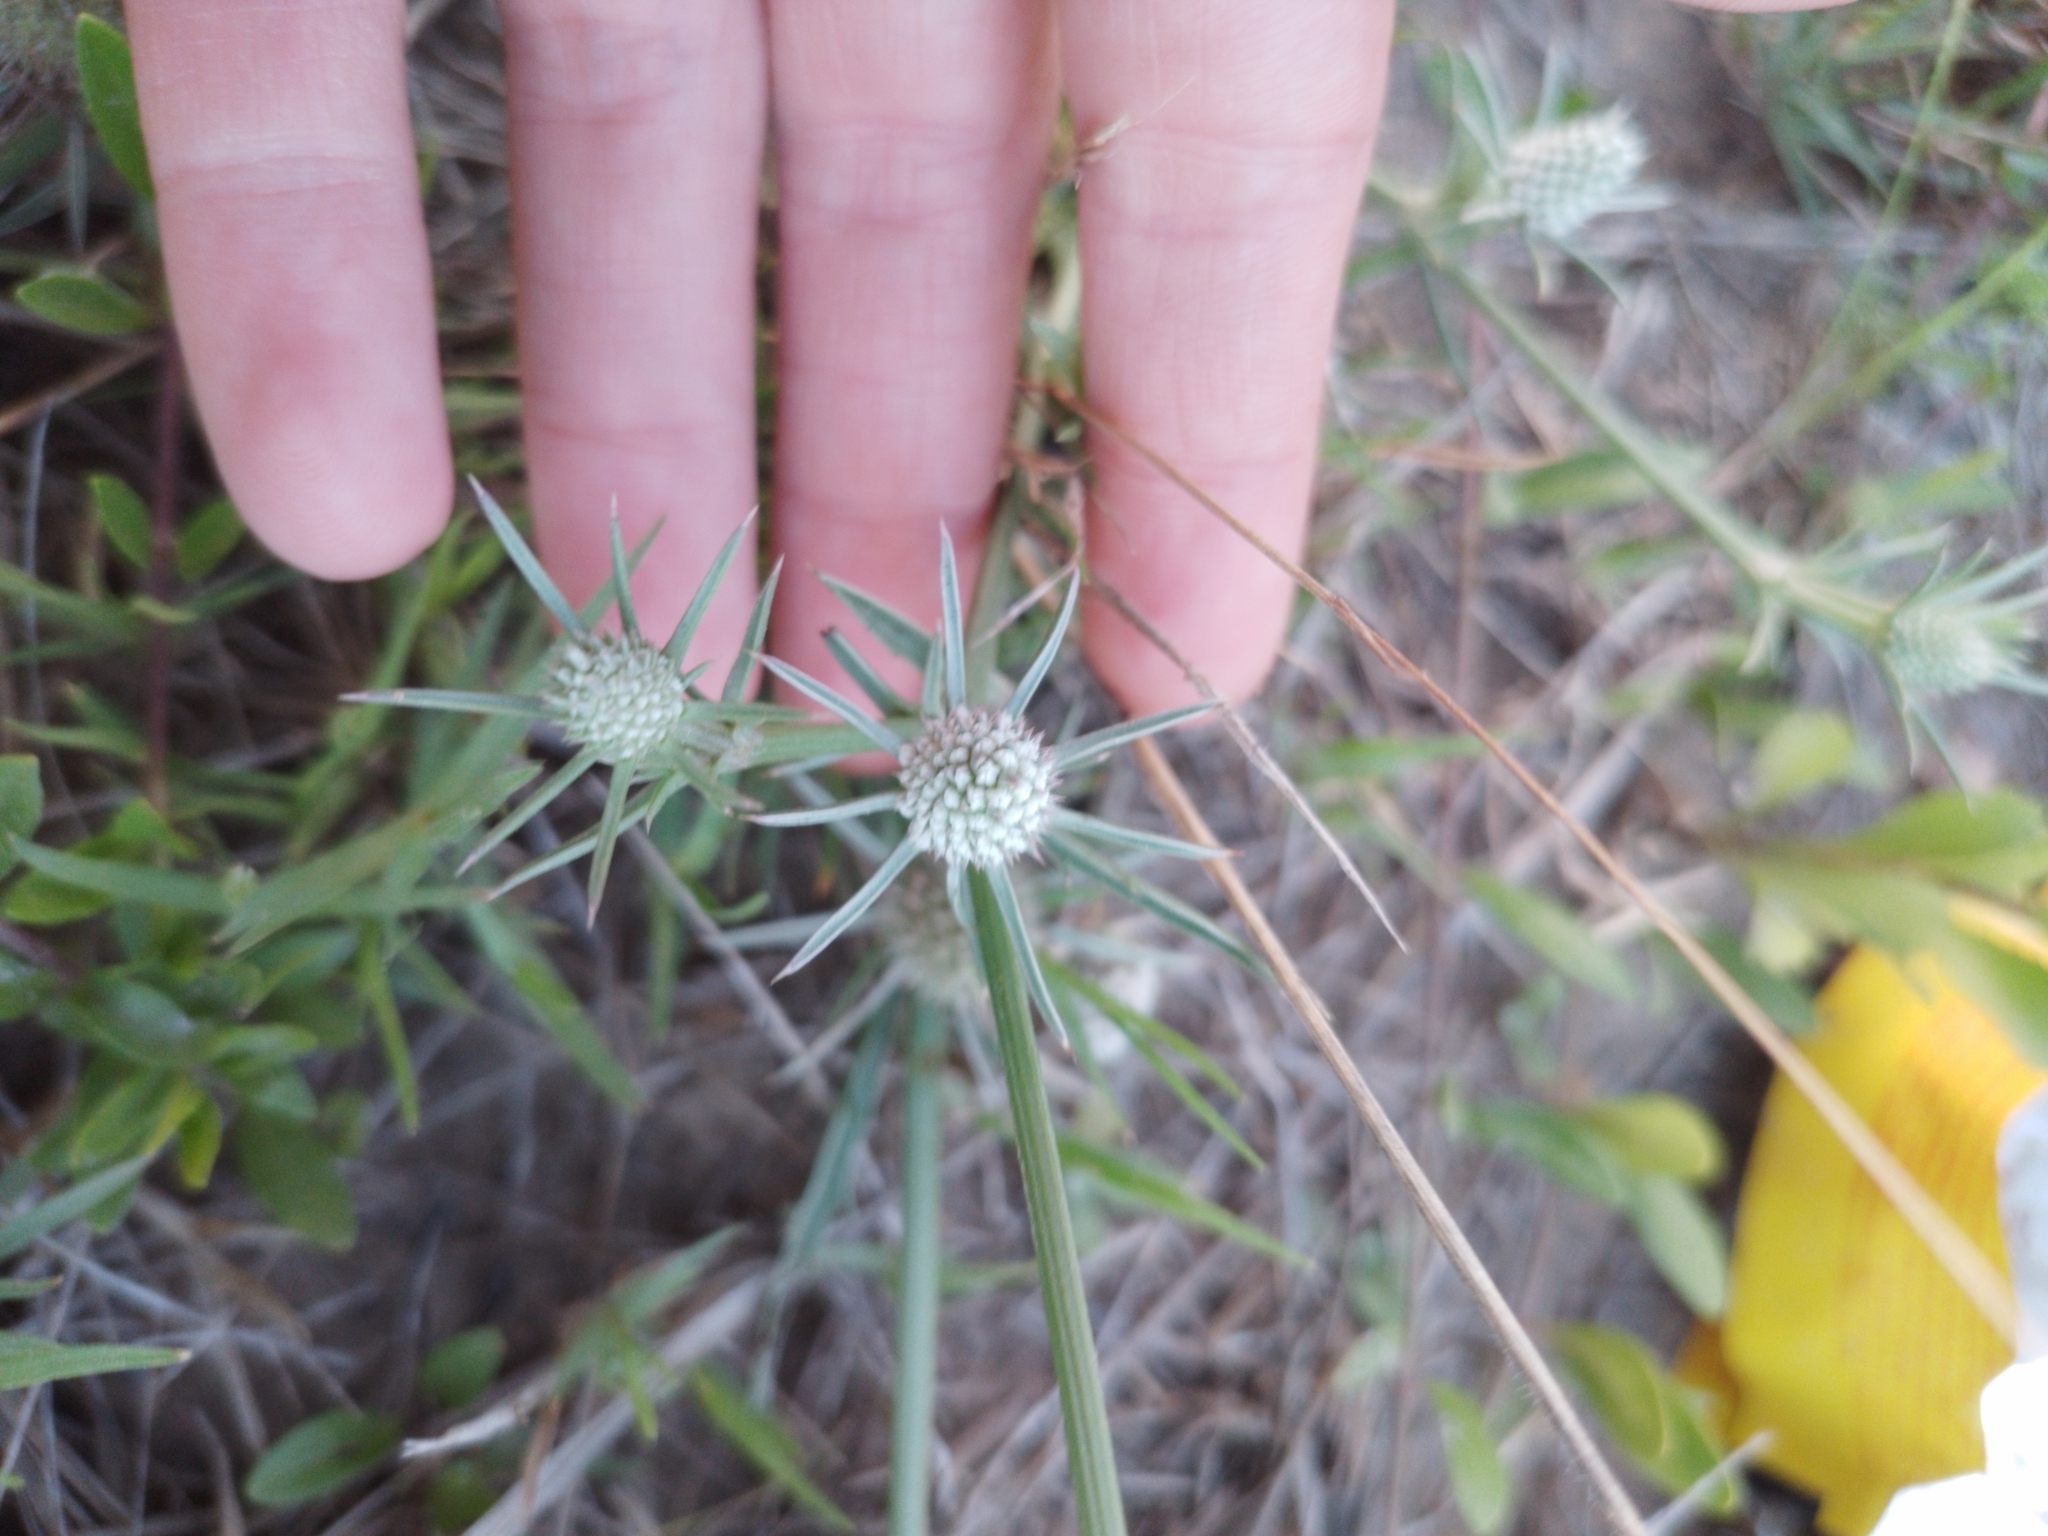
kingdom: Plantae
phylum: Tracheophyta
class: Magnoliopsida
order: Apiales
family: Apiaceae
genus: Eryngium
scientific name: Eryngium echinatum
